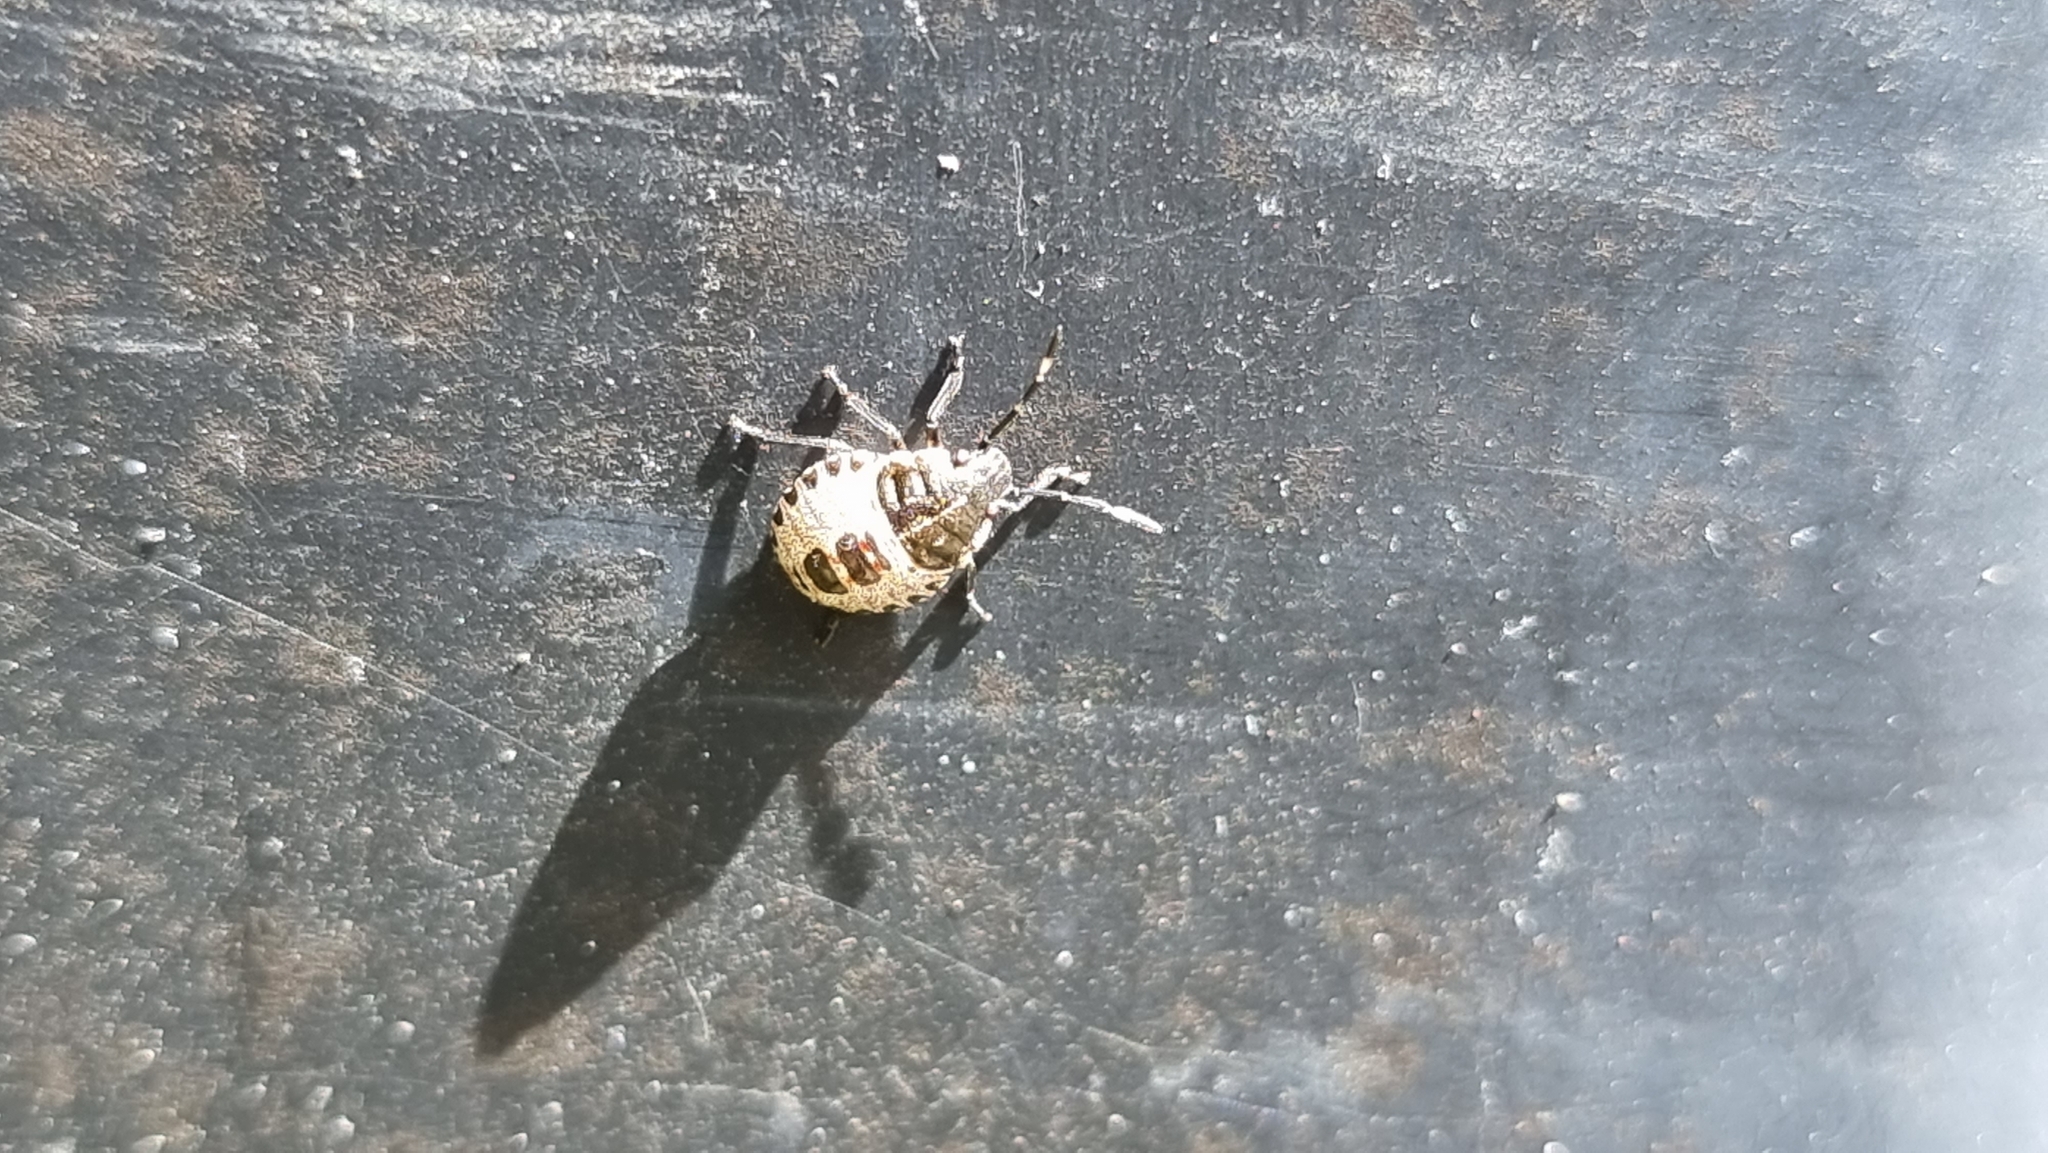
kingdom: Animalia
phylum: Arthropoda
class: Insecta
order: Hemiptera
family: Pentatomidae
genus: Rhaphigaster
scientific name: Rhaphigaster nebulosa
